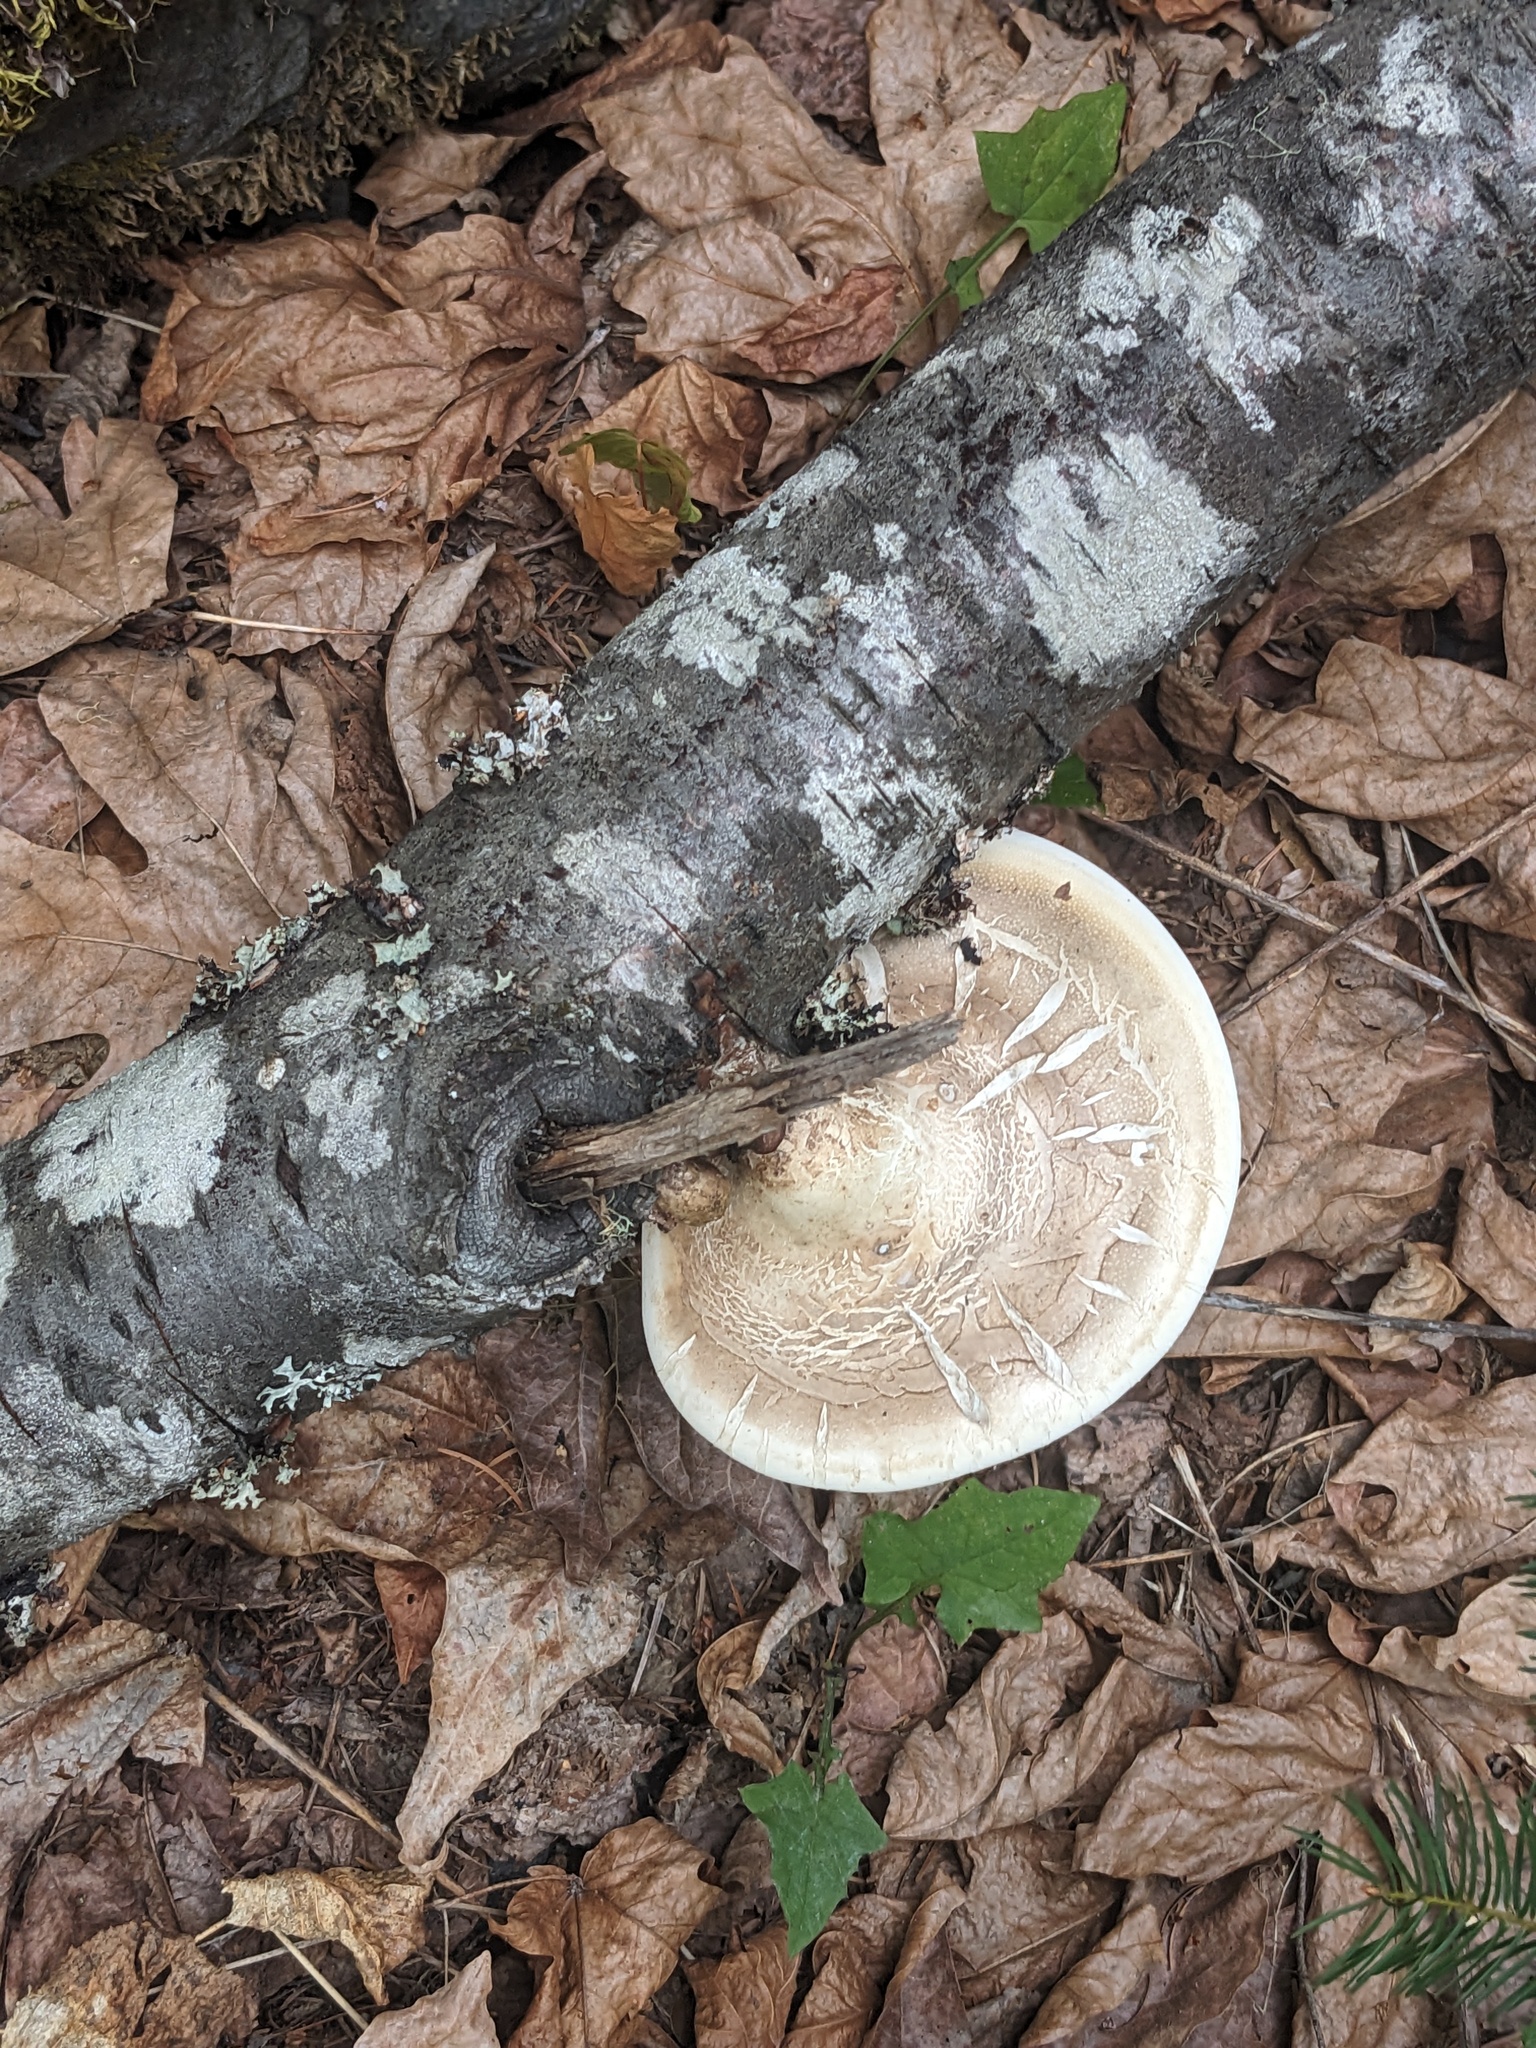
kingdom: Fungi
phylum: Basidiomycota
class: Agaricomycetes
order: Polyporales
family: Fomitopsidaceae
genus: Fomitopsis
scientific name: Fomitopsis betulina
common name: Birch polypore
